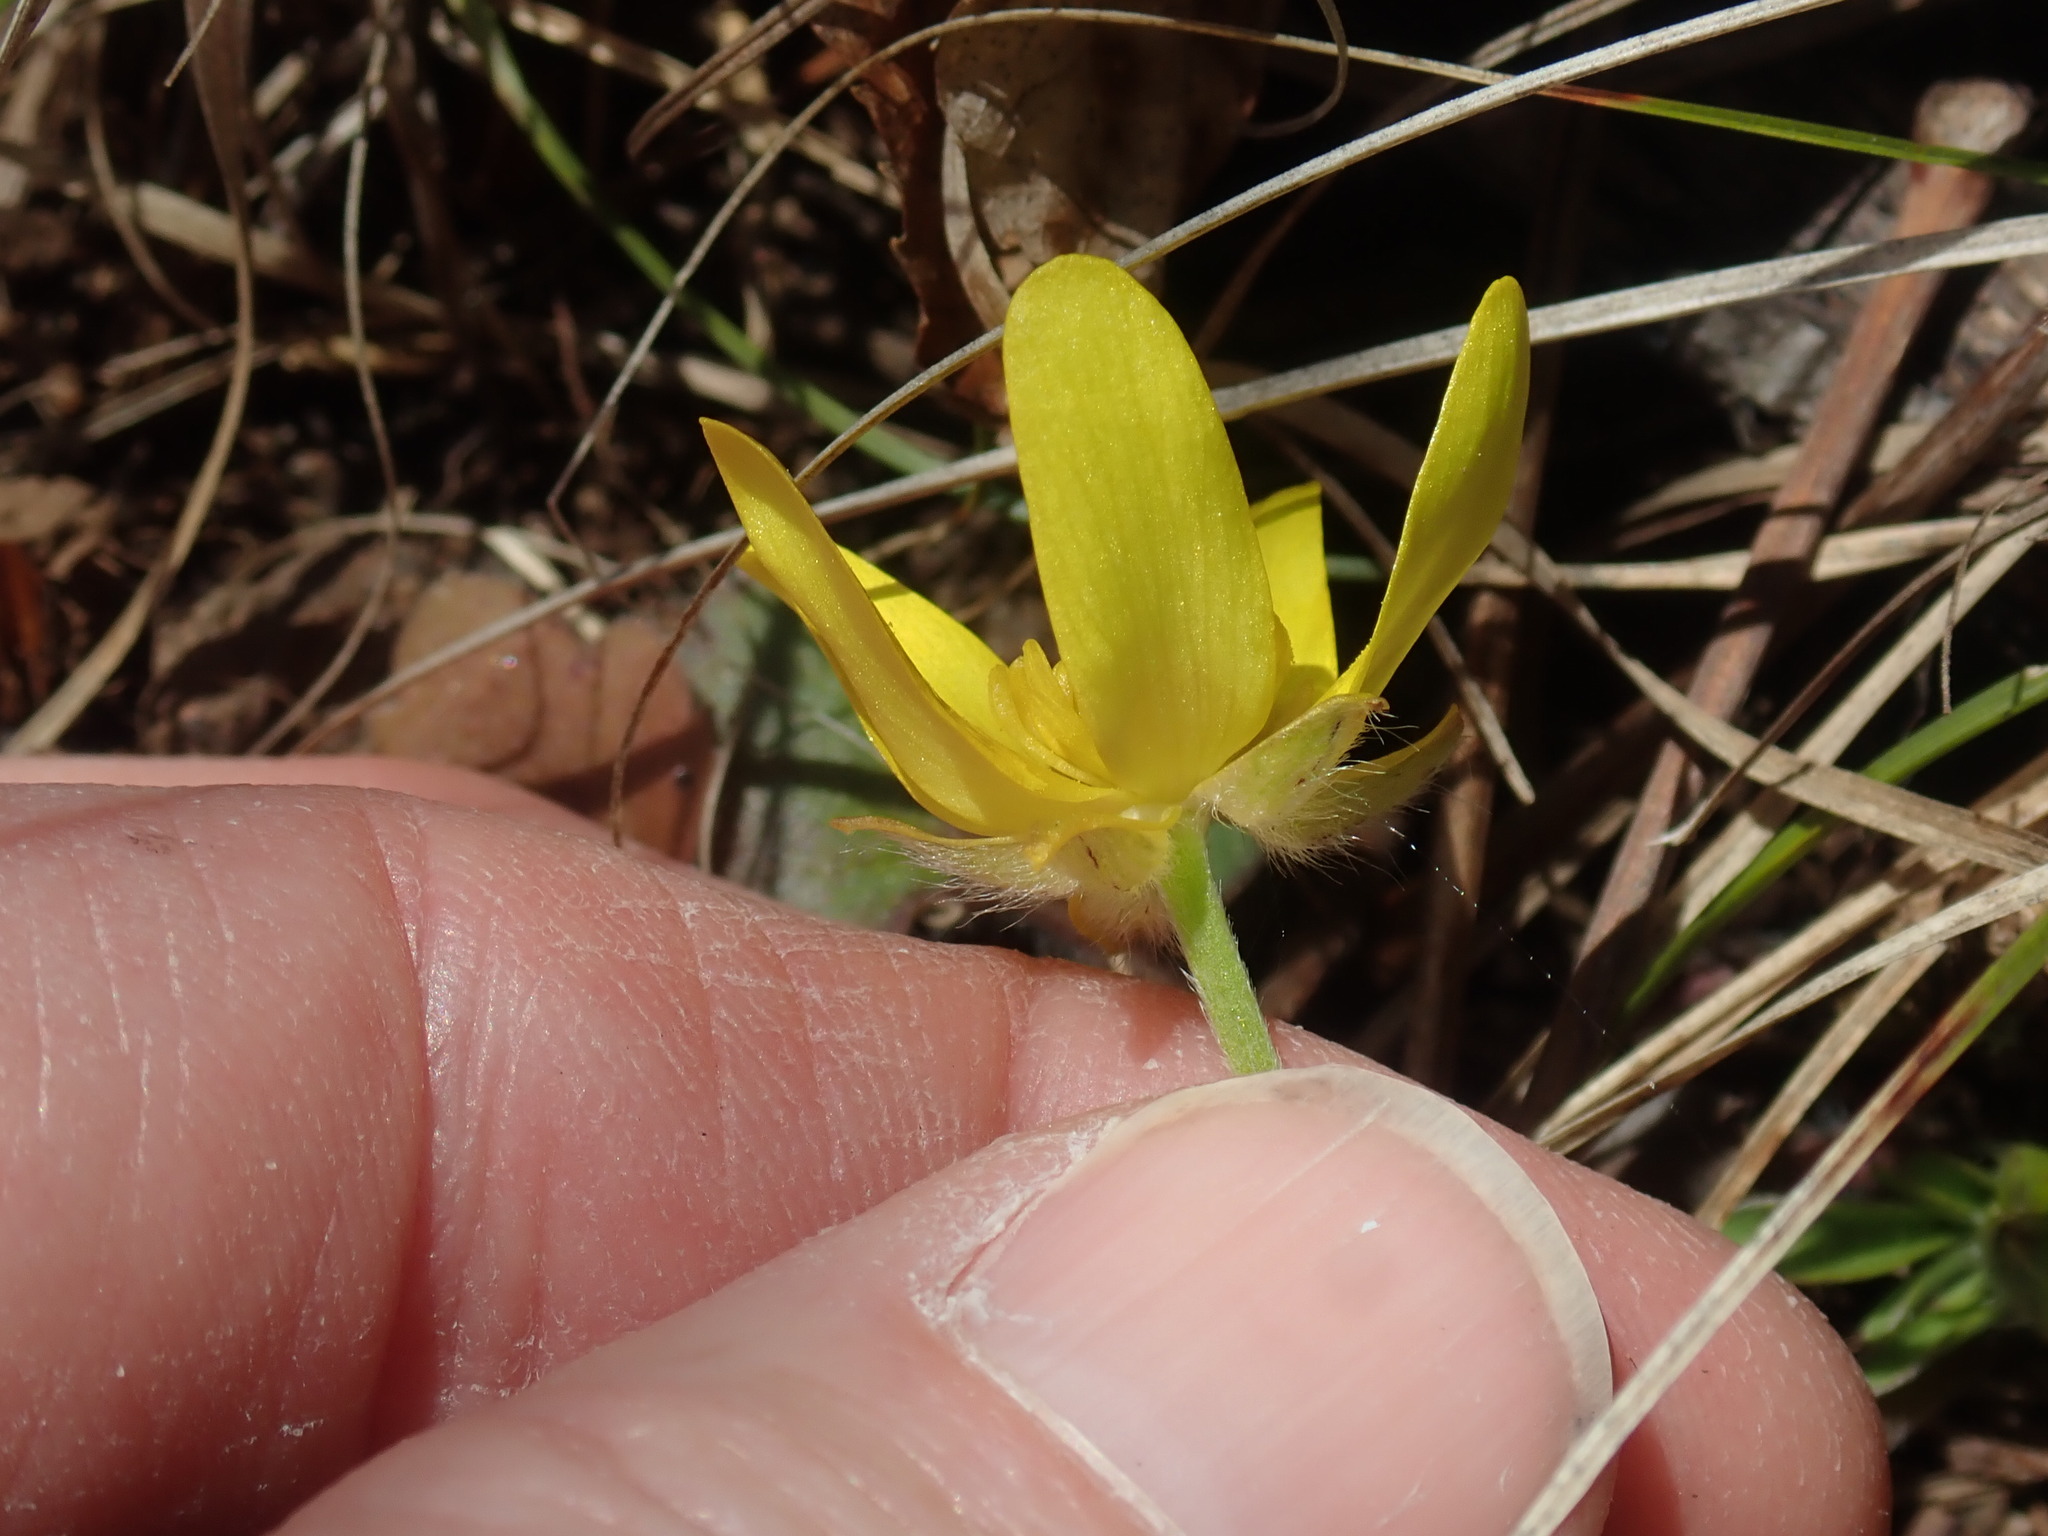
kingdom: Plantae
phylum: Tracheophyta
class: Magnoliopsida
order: Ranunculales
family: Ranunculaceae
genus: Ranunculus
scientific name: Ranunculus fascicularis
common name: Early buttercup
